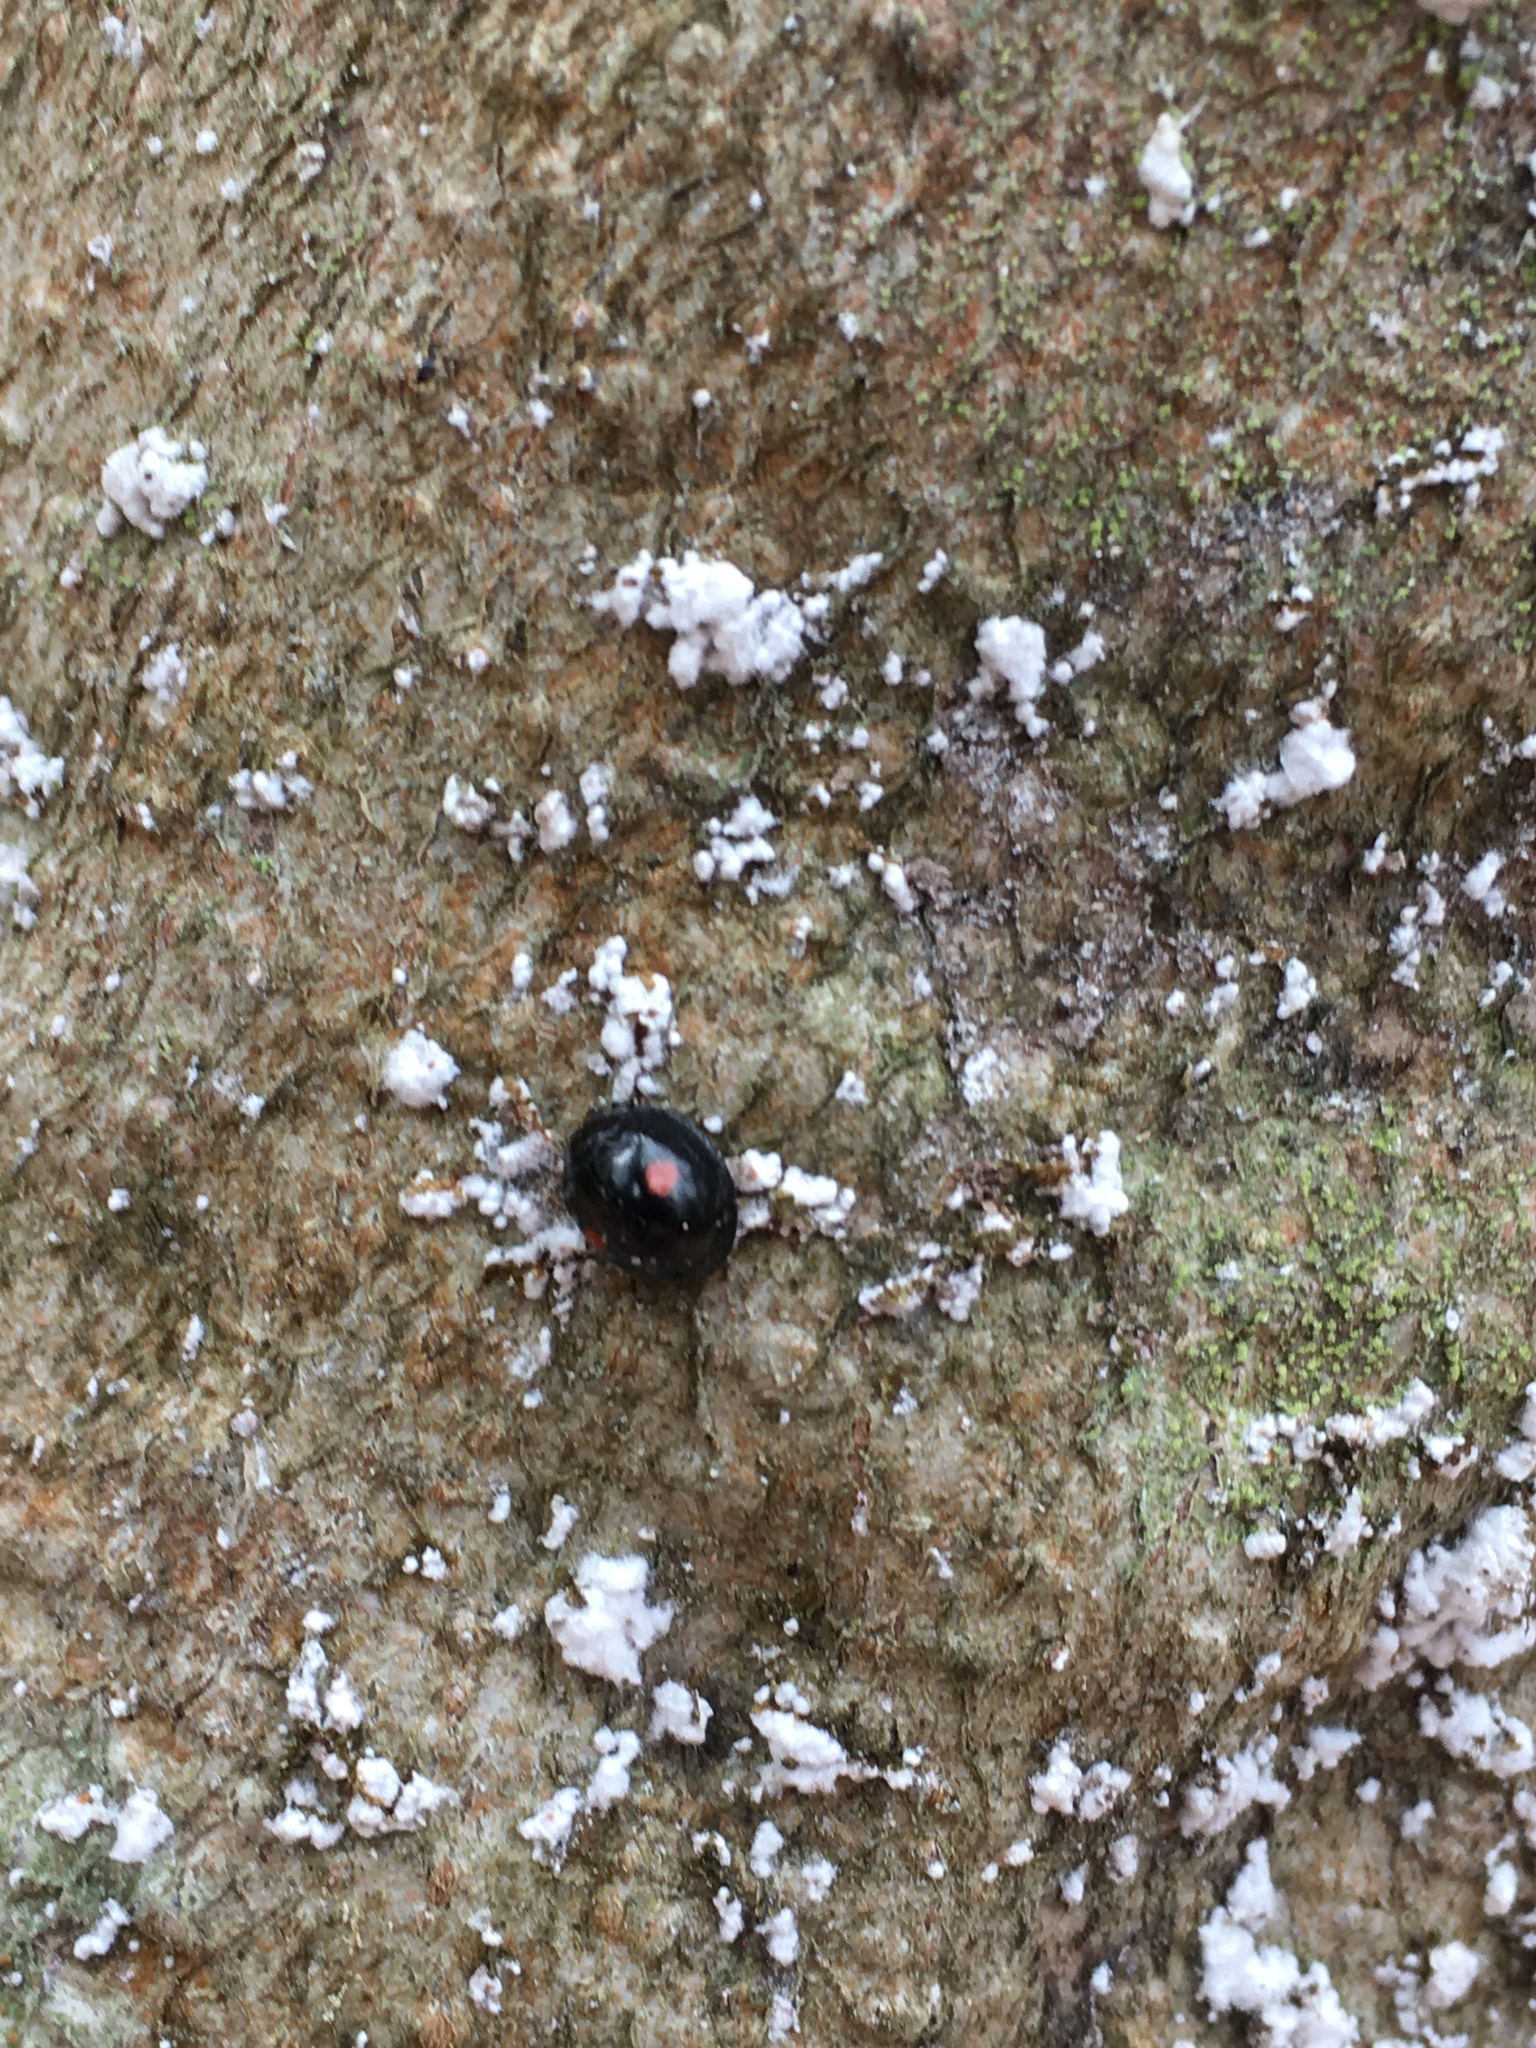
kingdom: Animalia
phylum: Arthropoda
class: Insecta
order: Coleoptera
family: Coccinellidae
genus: Chilocorus
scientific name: Chilocorus stigma
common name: Twicestabbed lady beetle
